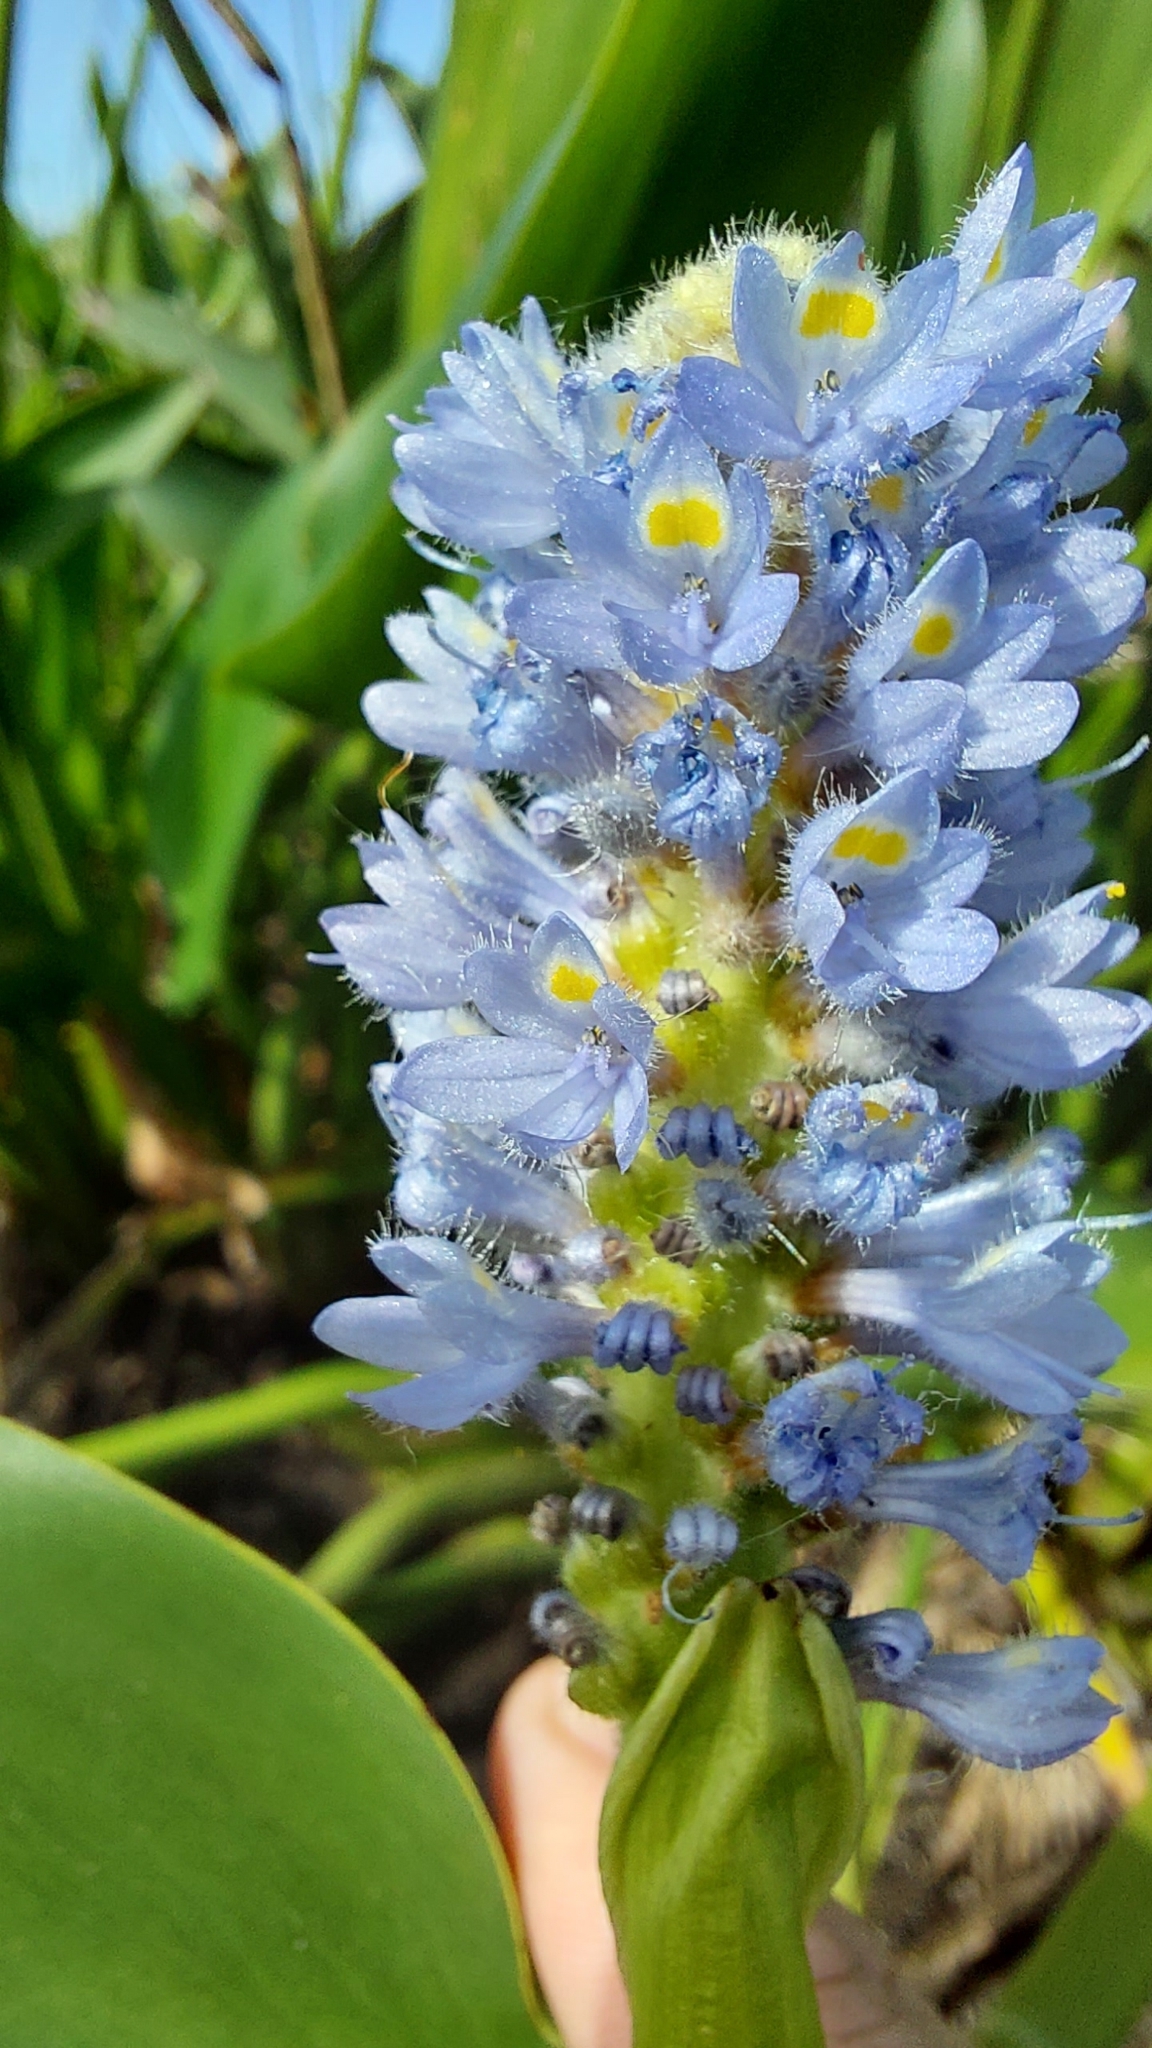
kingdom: Plantae
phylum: Tracheophyta
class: Liliopsida
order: Commelinales
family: Pontederiaceae
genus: Pontederia
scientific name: Pontederia cordata
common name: Pickerelweed
